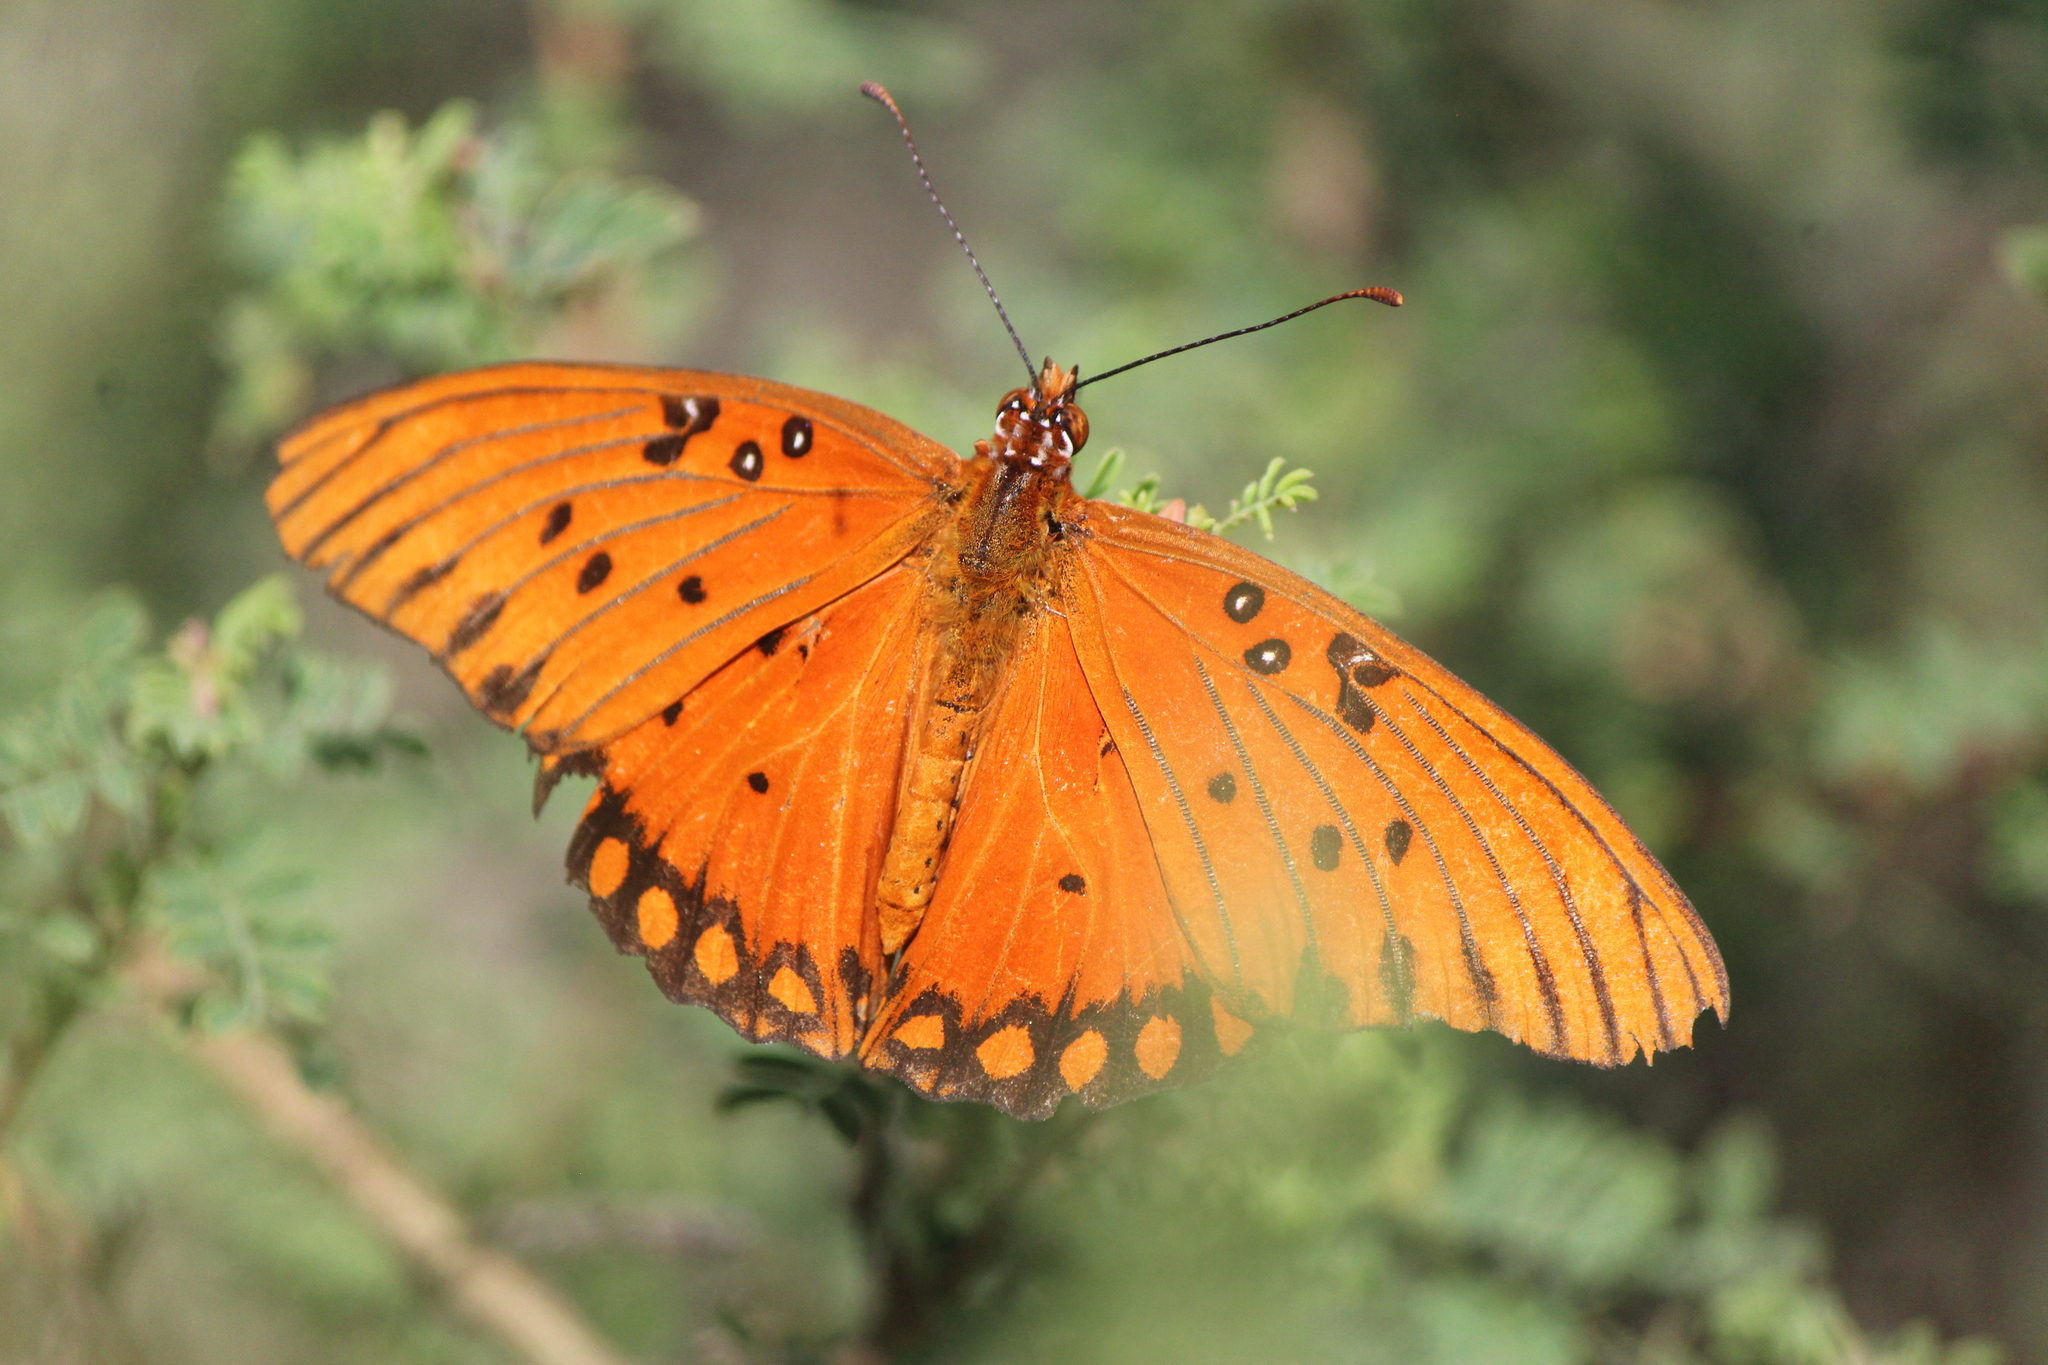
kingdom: Animalia
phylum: Arthropoda
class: Insecta
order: Lepidoptera
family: Nymphalidae
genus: Dione
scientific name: Dione vanillae
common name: Gulf fritillary
